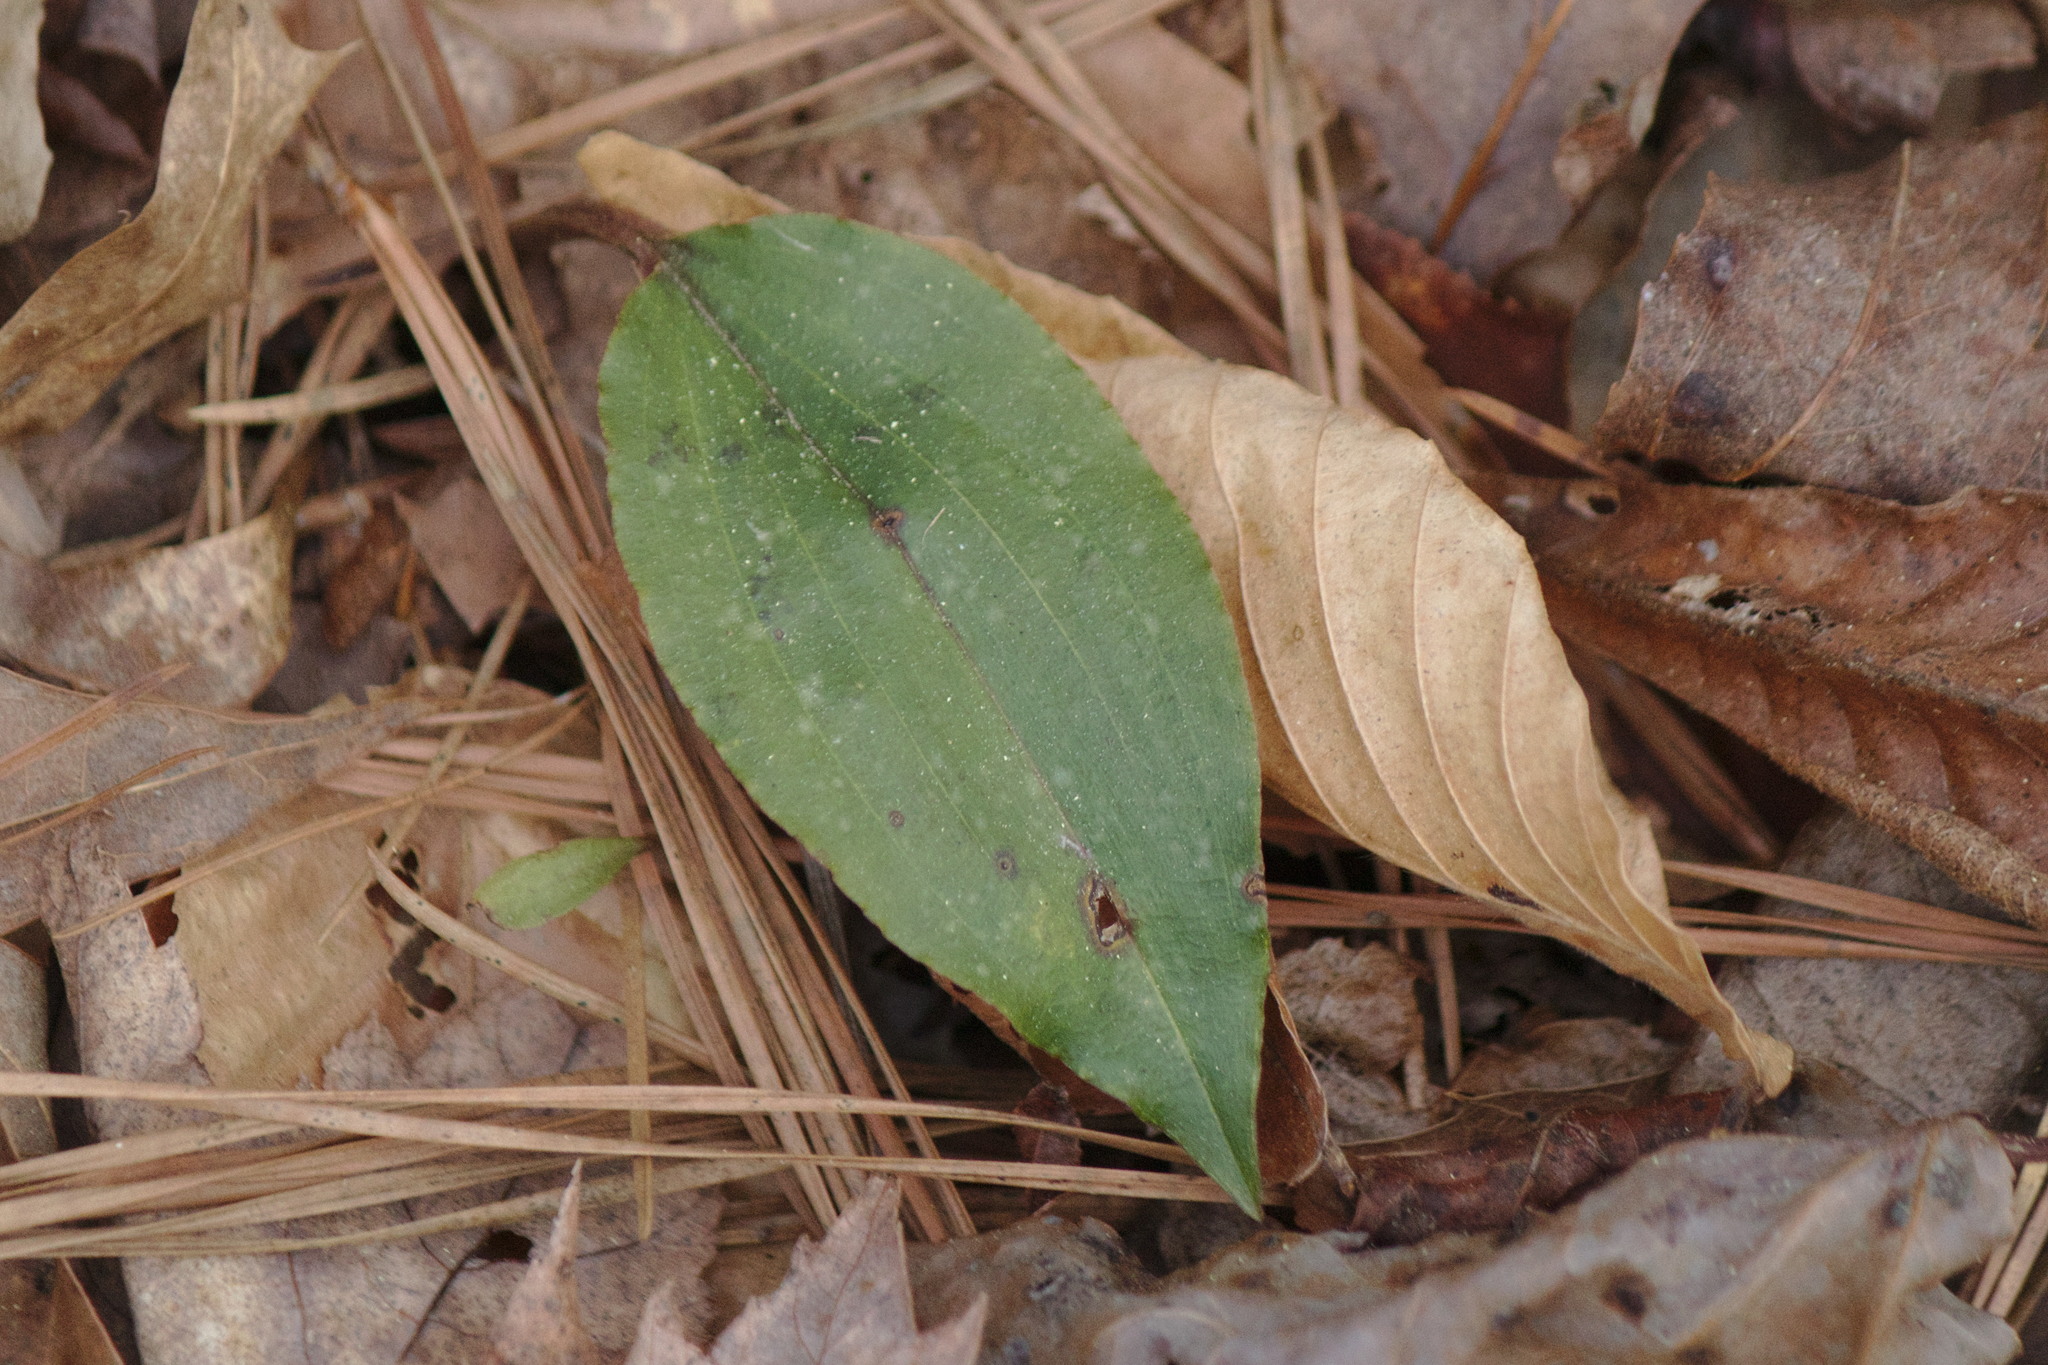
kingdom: Plantae
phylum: Tracheophyta
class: Liliopsida
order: Asparagales
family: Orchidaceae
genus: Tipularia
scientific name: Tipularia discolor
